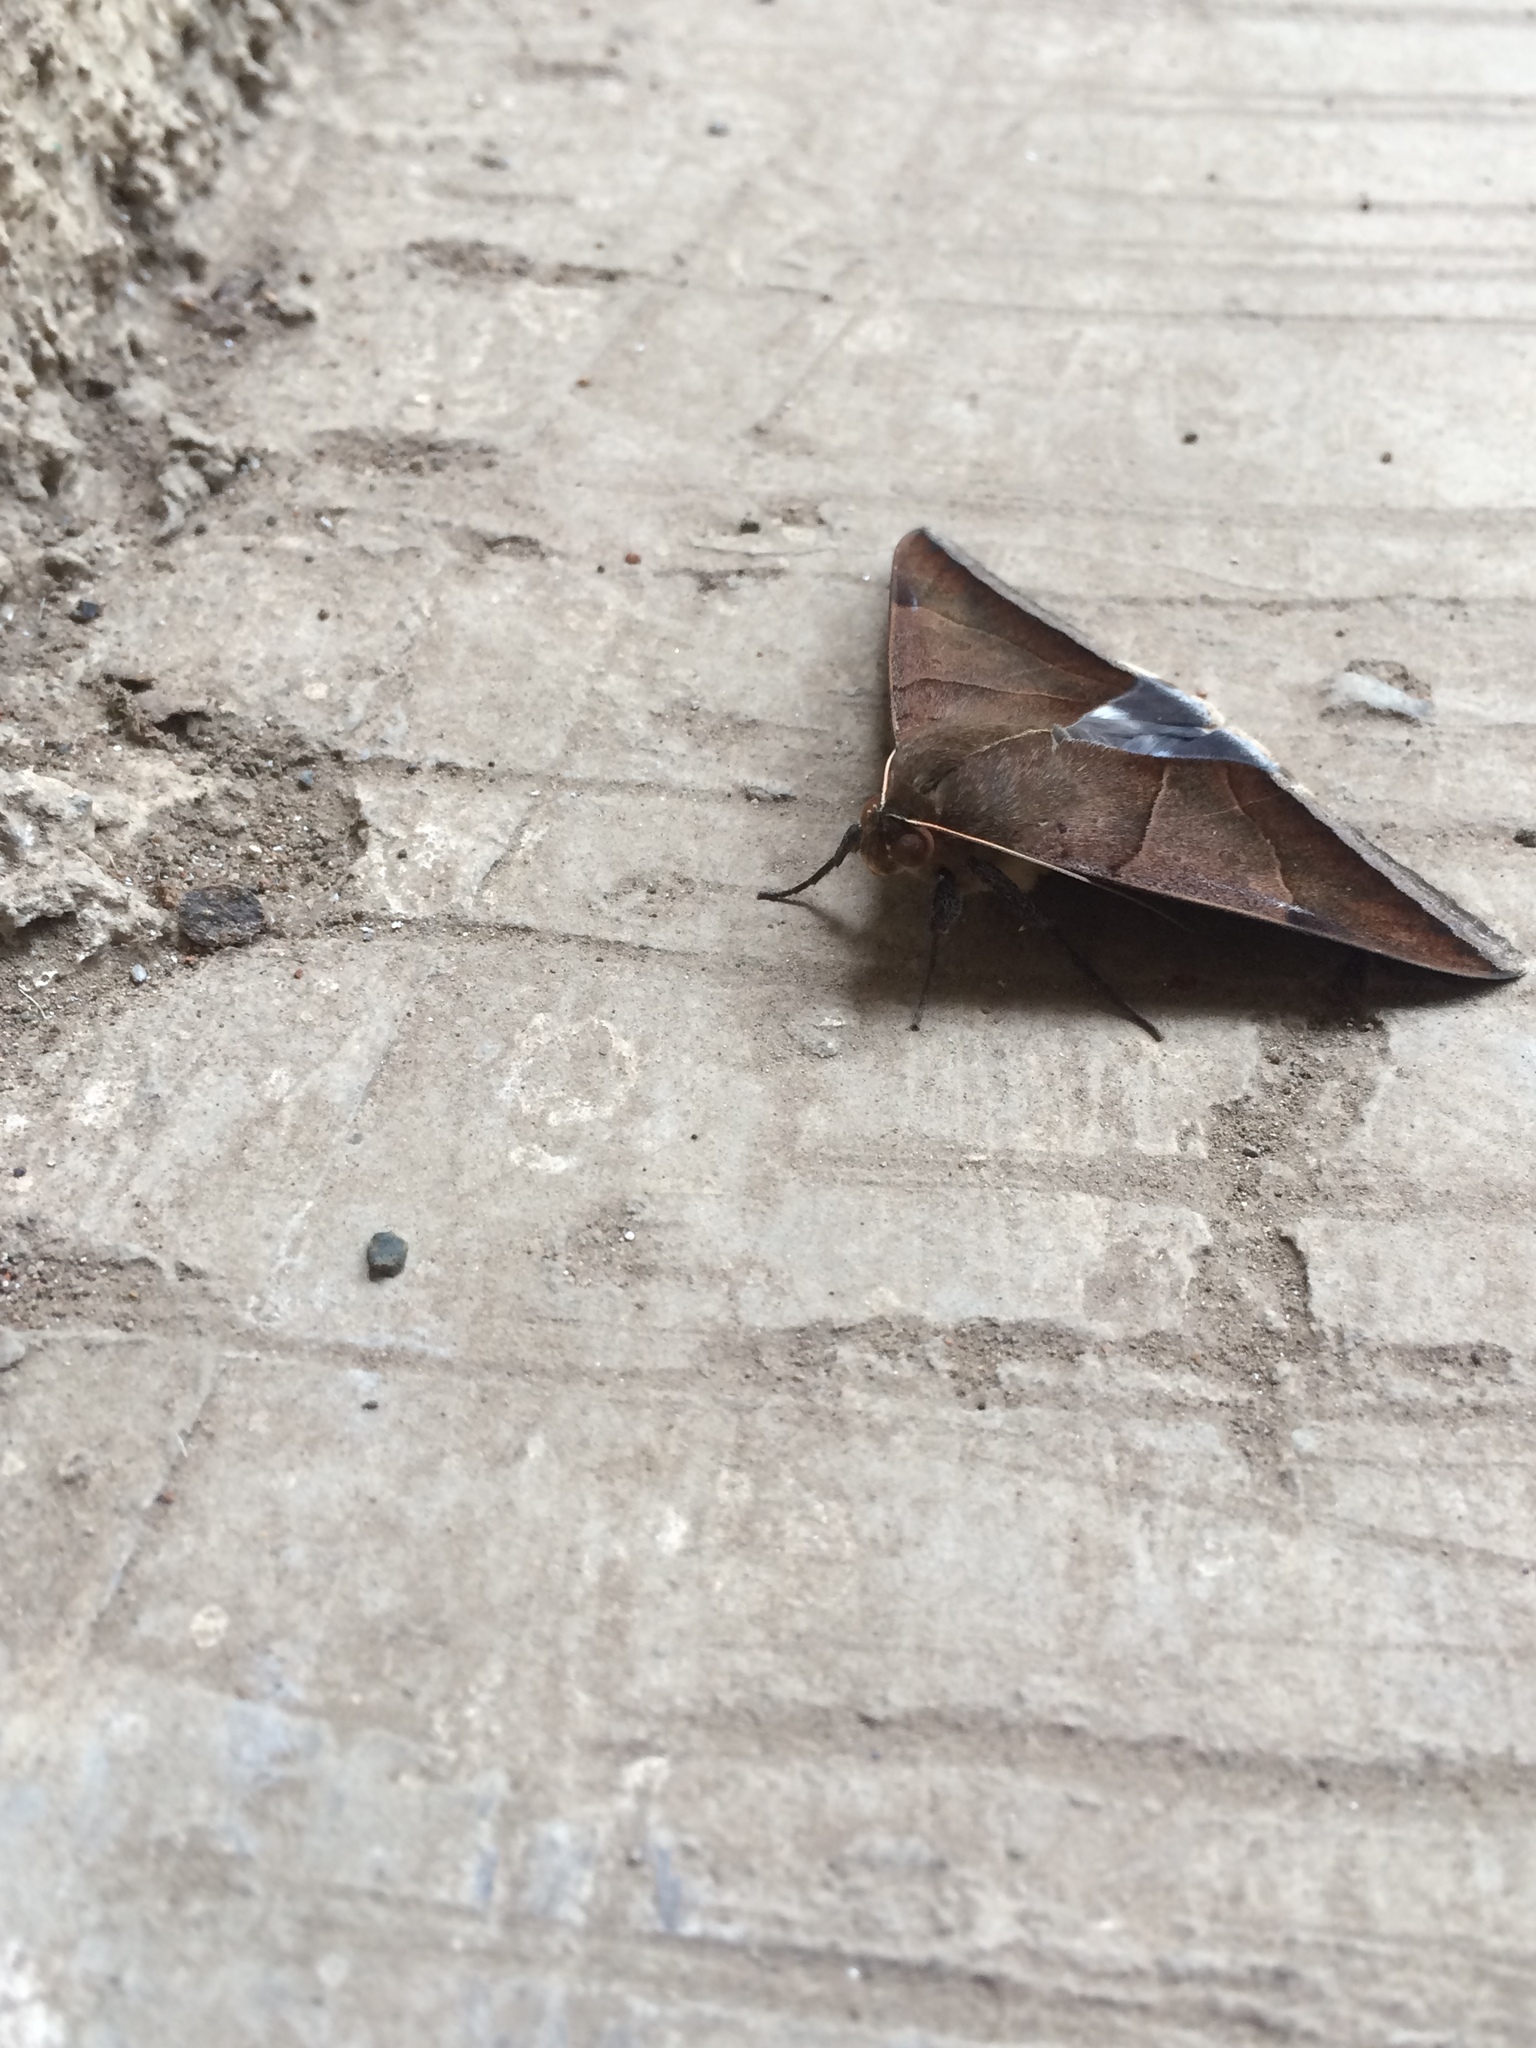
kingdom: Animalia
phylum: Arthropoda
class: Insecta
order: Lepidoptera
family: Erebidae
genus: Artena
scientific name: Artena dotata
